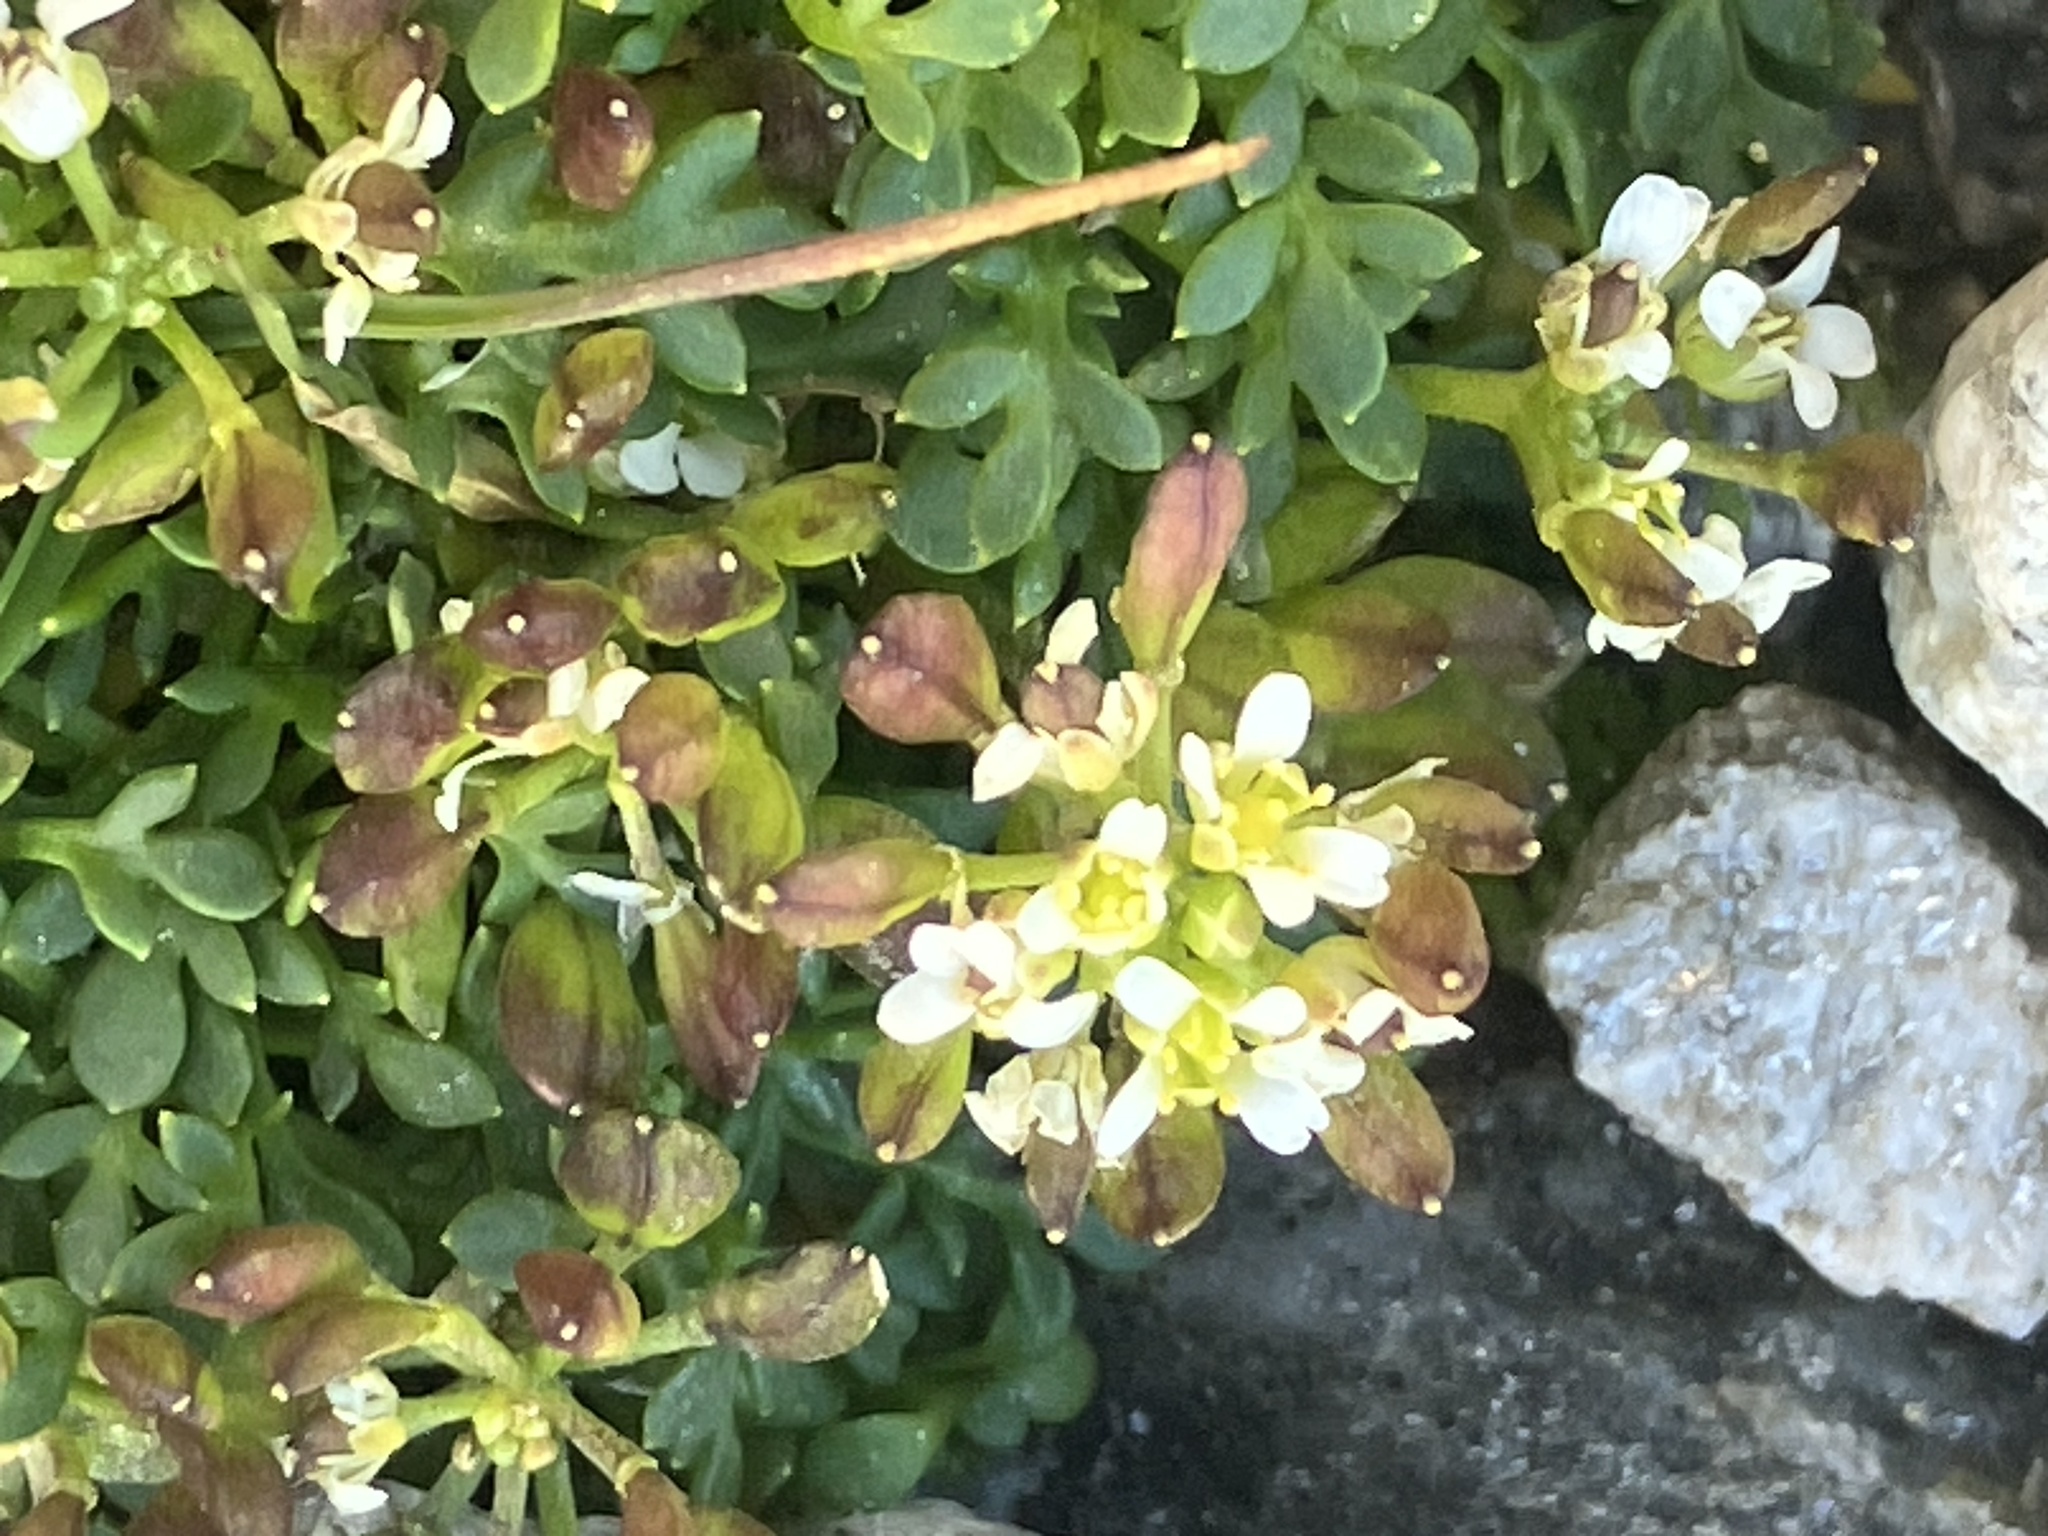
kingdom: Plantae
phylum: Tracheophyta
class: Magnoliopsida
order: Brassicales
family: Brassicaceae
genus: Hornungia
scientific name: Hornungia alpina
